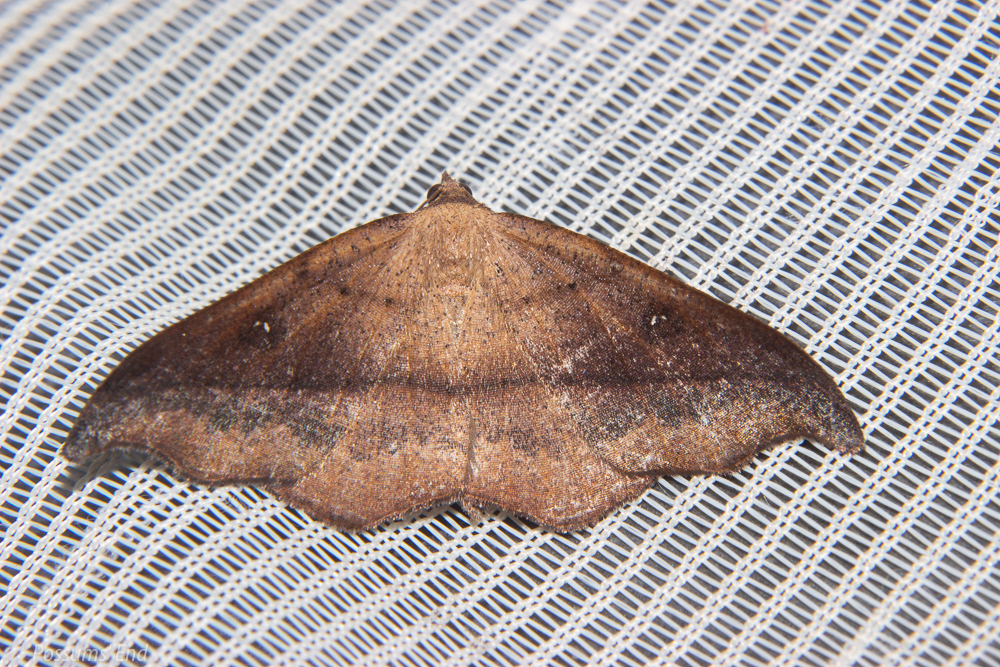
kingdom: Animalia
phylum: Arthropoda
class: Insecta
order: Lepidoptera
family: Geometridae
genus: Sarisa
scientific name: Sarisa muriferata
